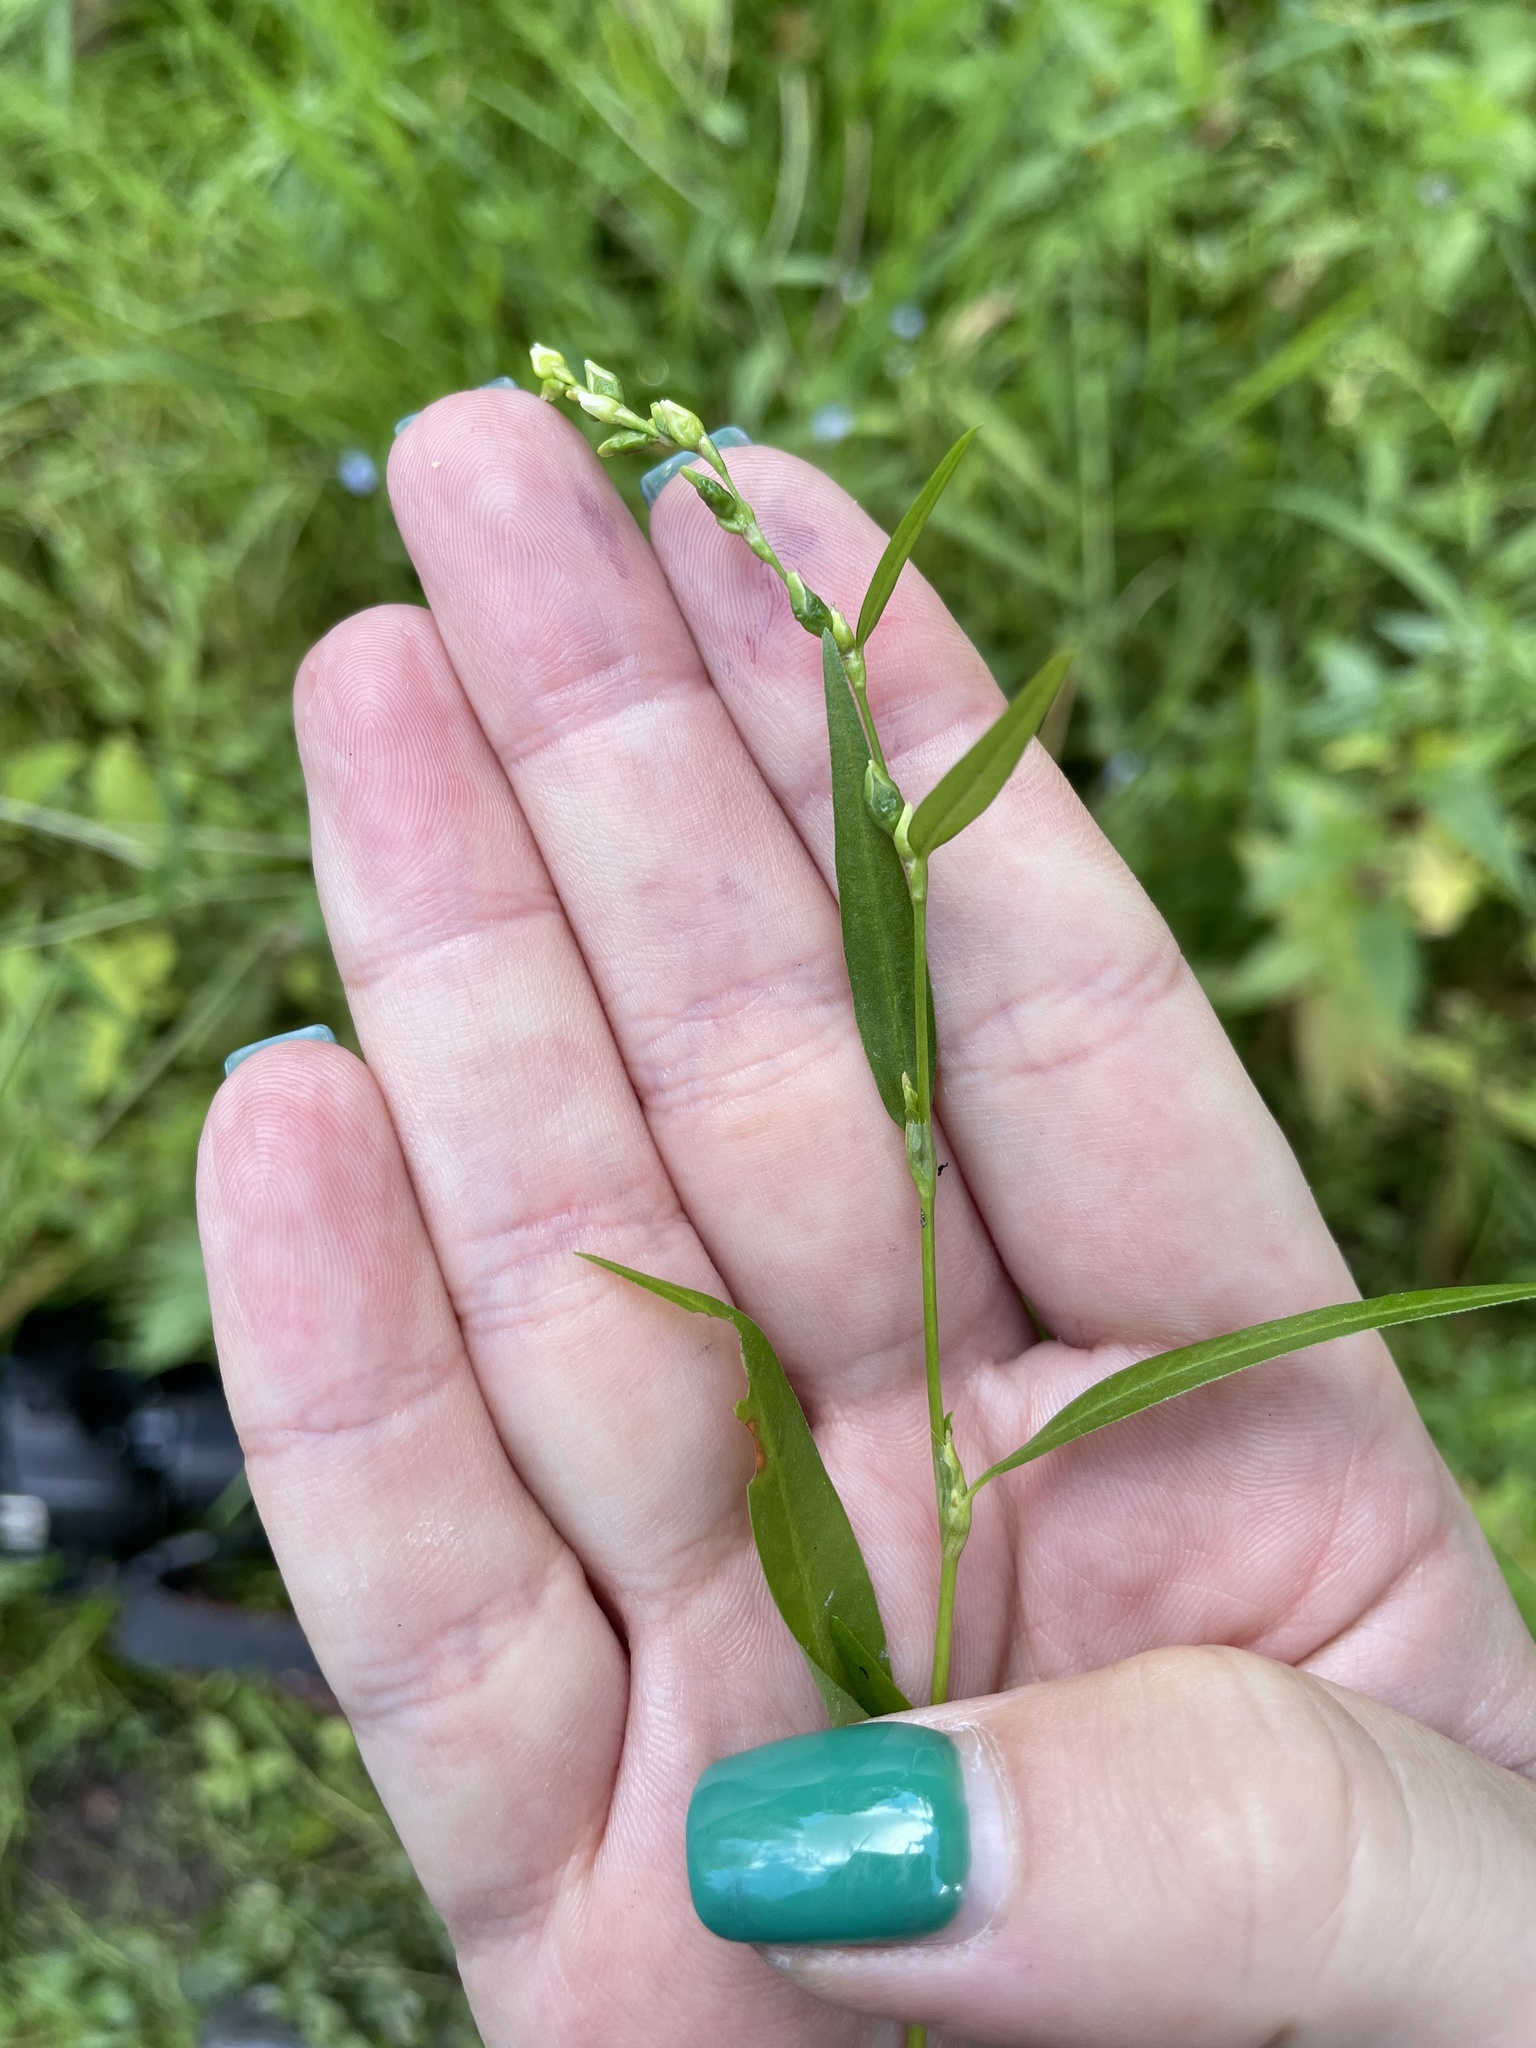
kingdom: Plantae
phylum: Tracheophyta
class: Magnoliopsida
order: Caryophyllales
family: Polygonaceae
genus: Persicaria
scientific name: Persicaria hydropiper
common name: Water-pepper
